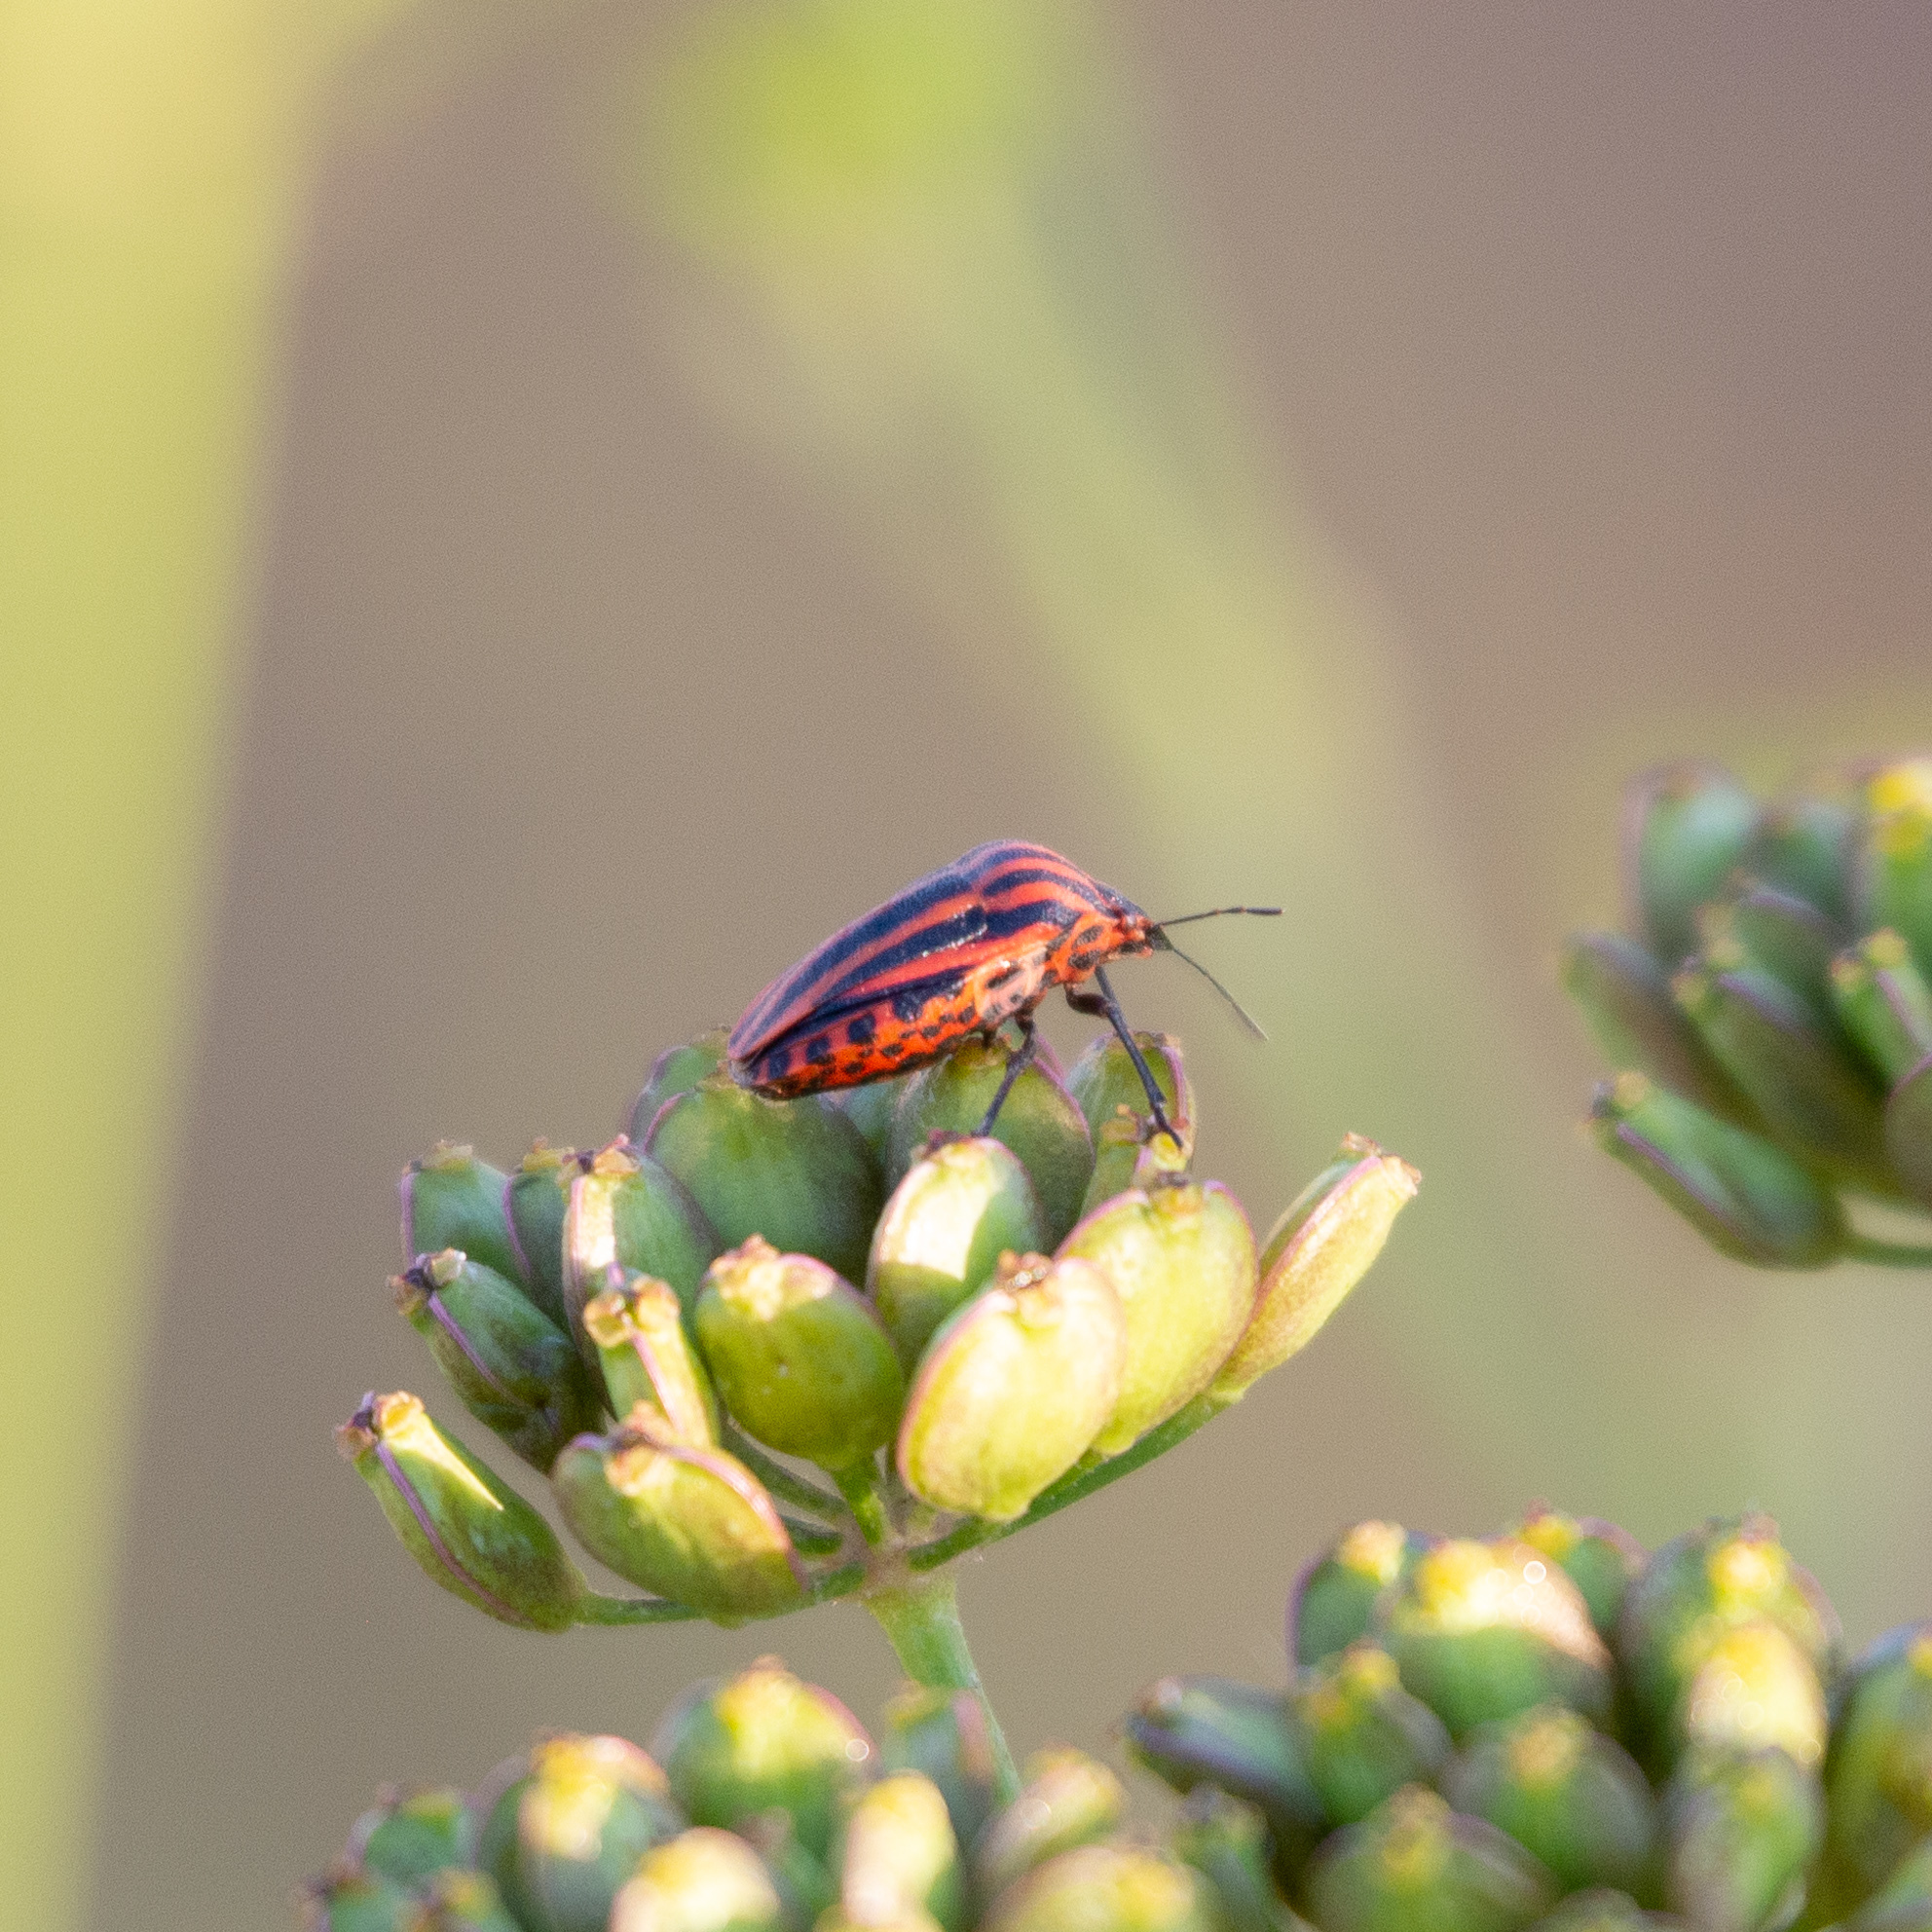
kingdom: Animalia
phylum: Arthropoda
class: Insecta
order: Hemiptera
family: Pentatomidae
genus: Graphosoma
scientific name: Graphosoma italicum
